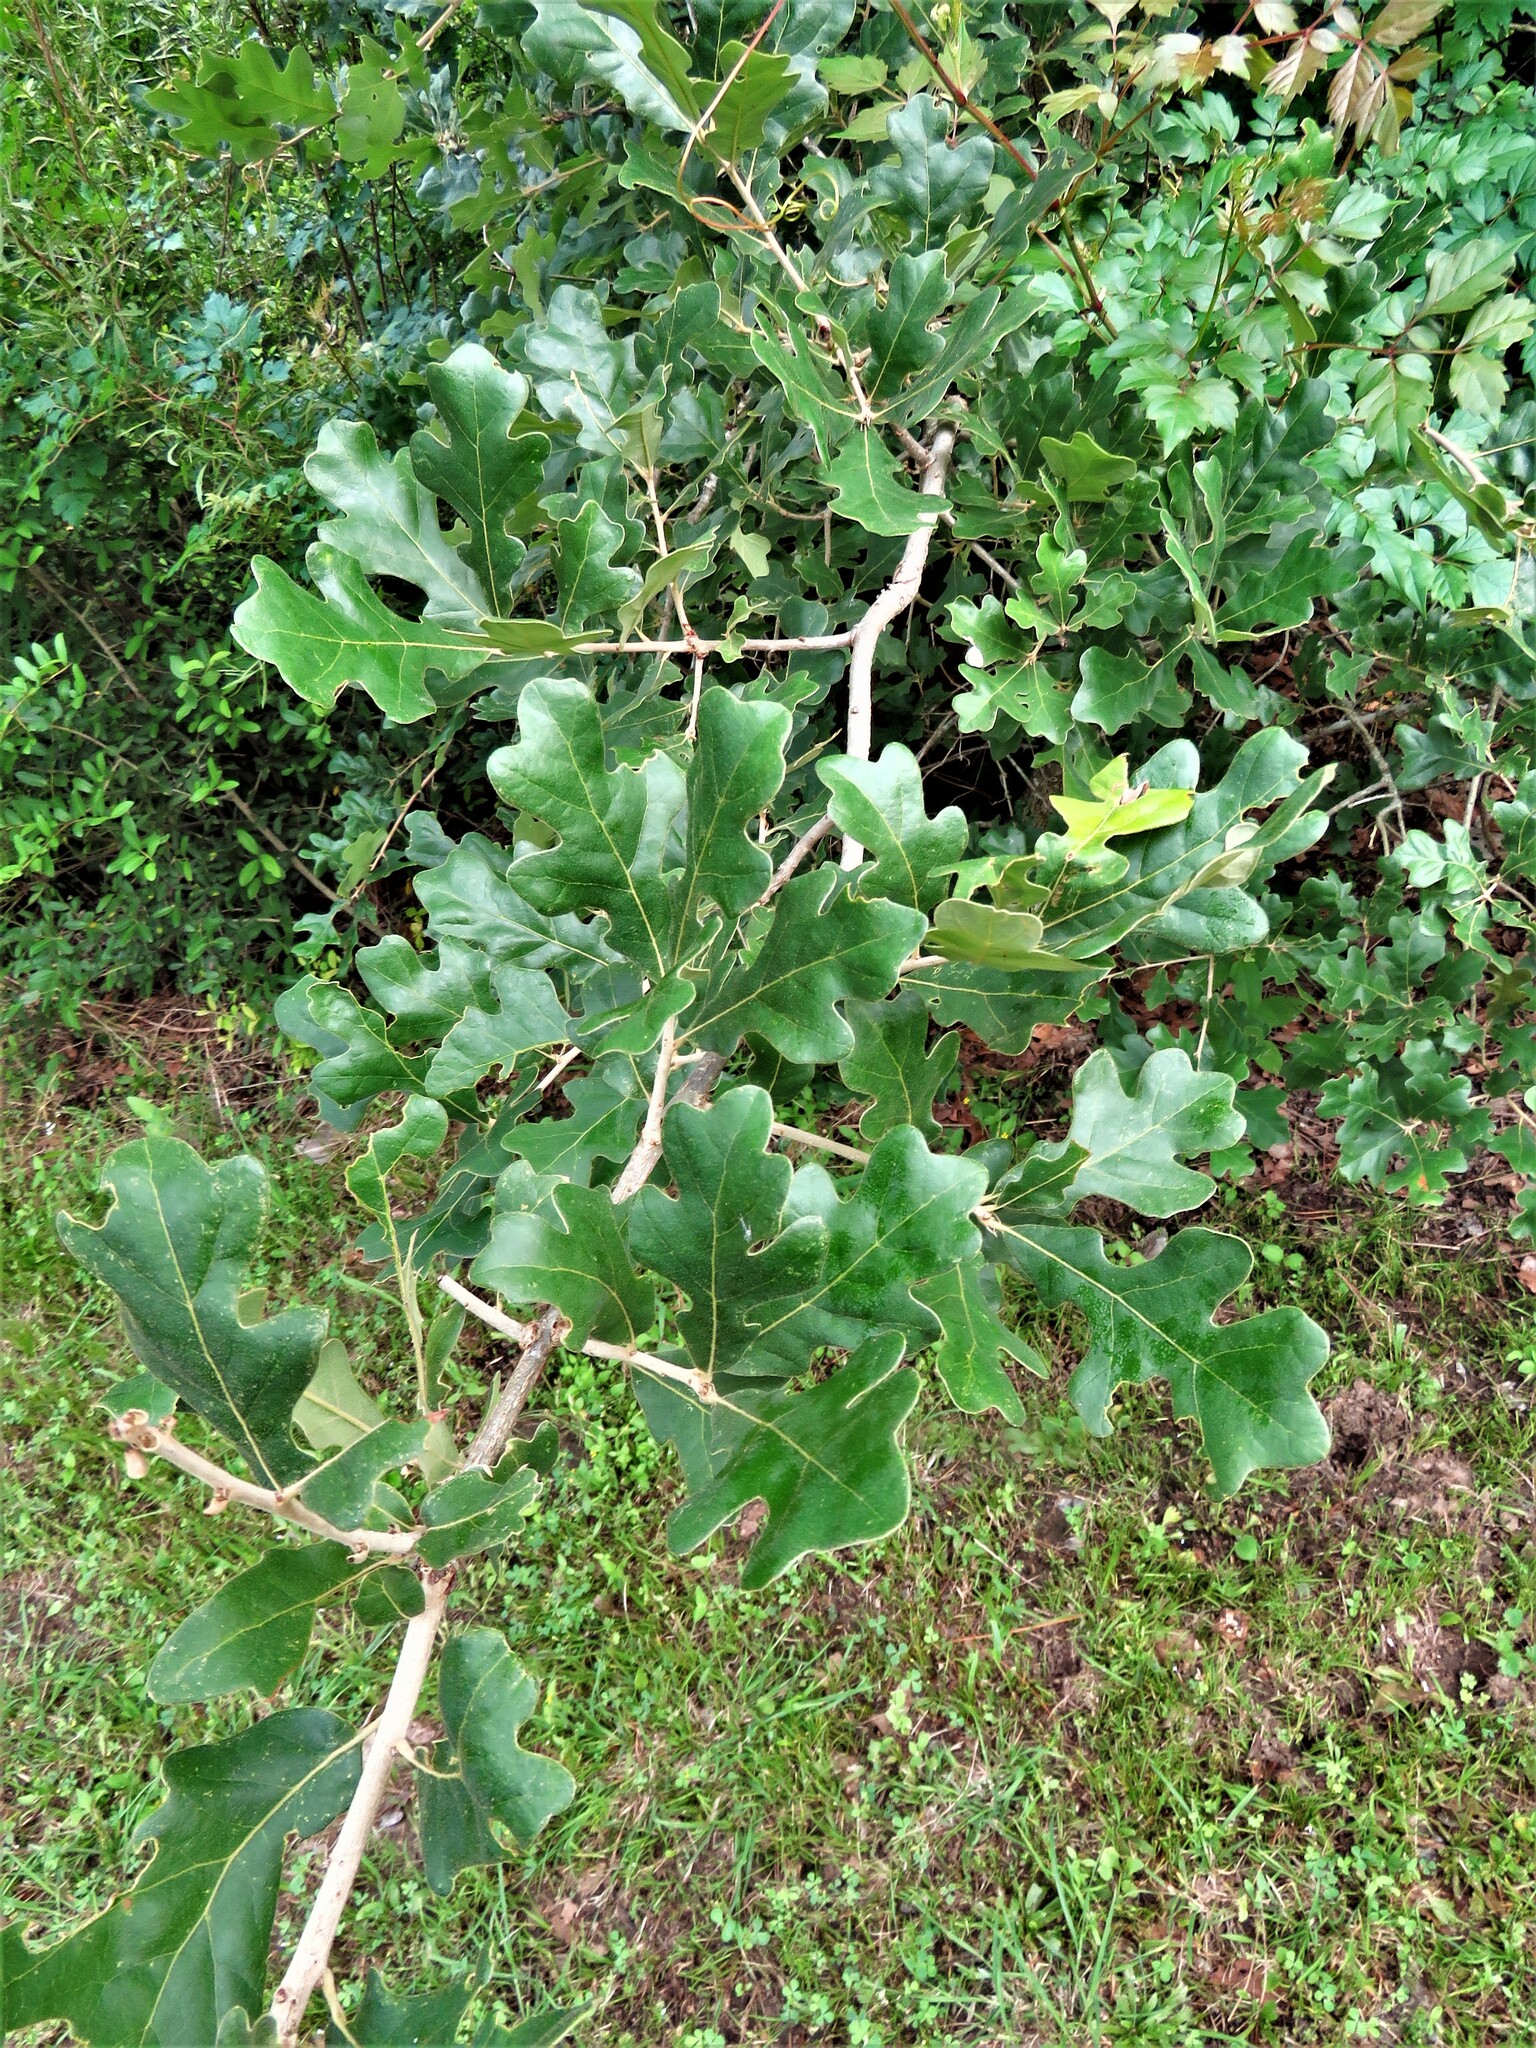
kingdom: Plantae
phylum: Tracheophyta
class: Magnoliopsida
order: Fagales
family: Fagaceae
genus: Quercus
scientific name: Quercus stellata
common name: Post oak
